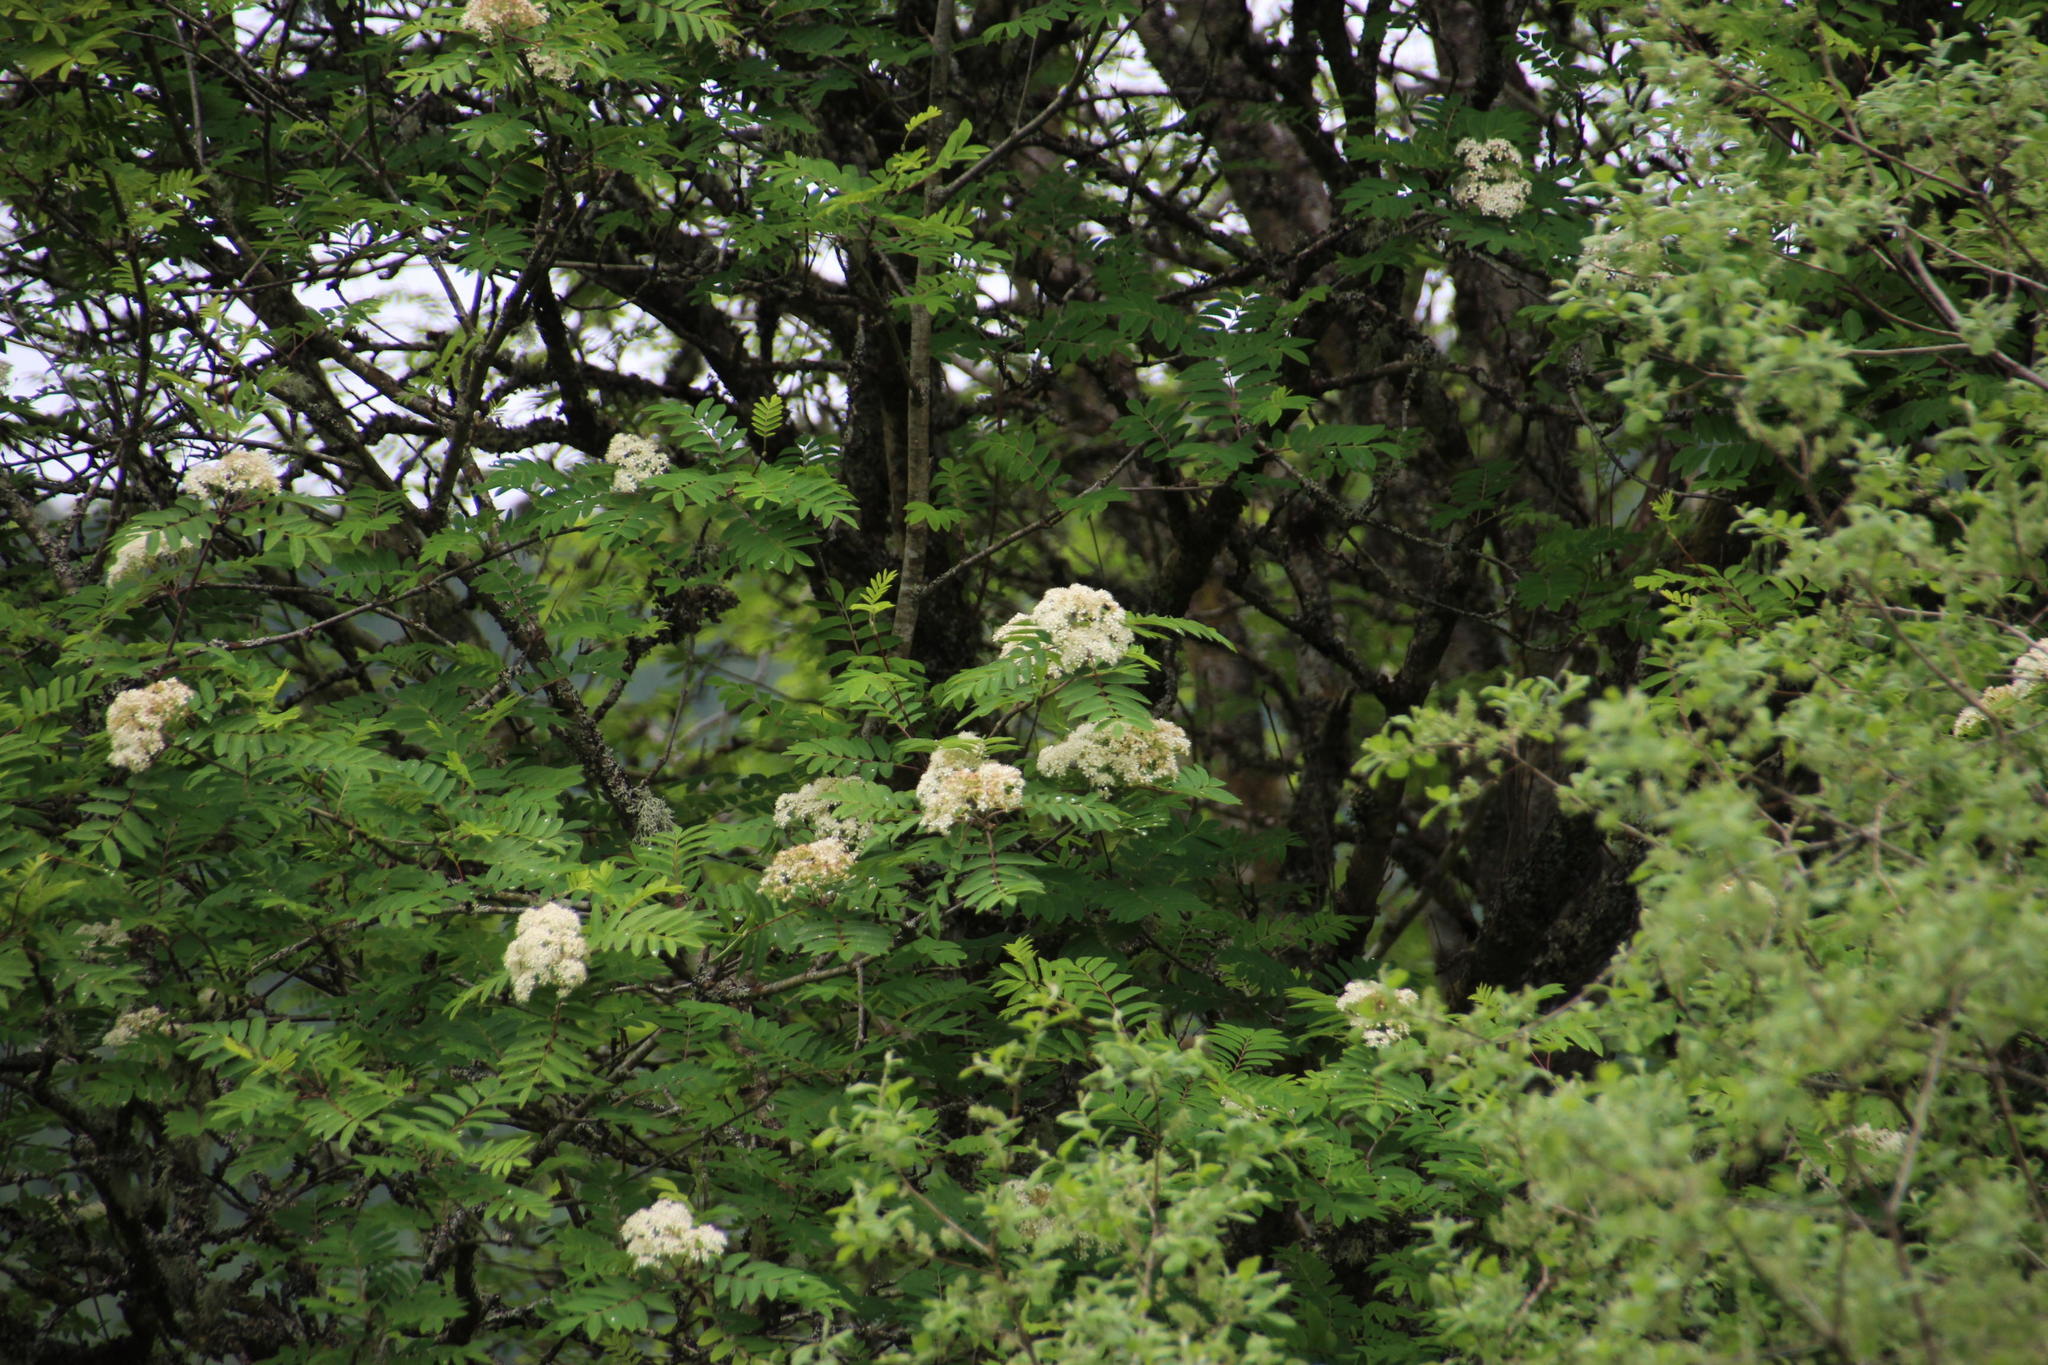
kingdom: Plantae
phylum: Tracheophyta
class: Magnoliopsida
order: Rosales
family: Rosaceae
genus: Sorbus
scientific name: Sorbus aucuparia
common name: Rowan
